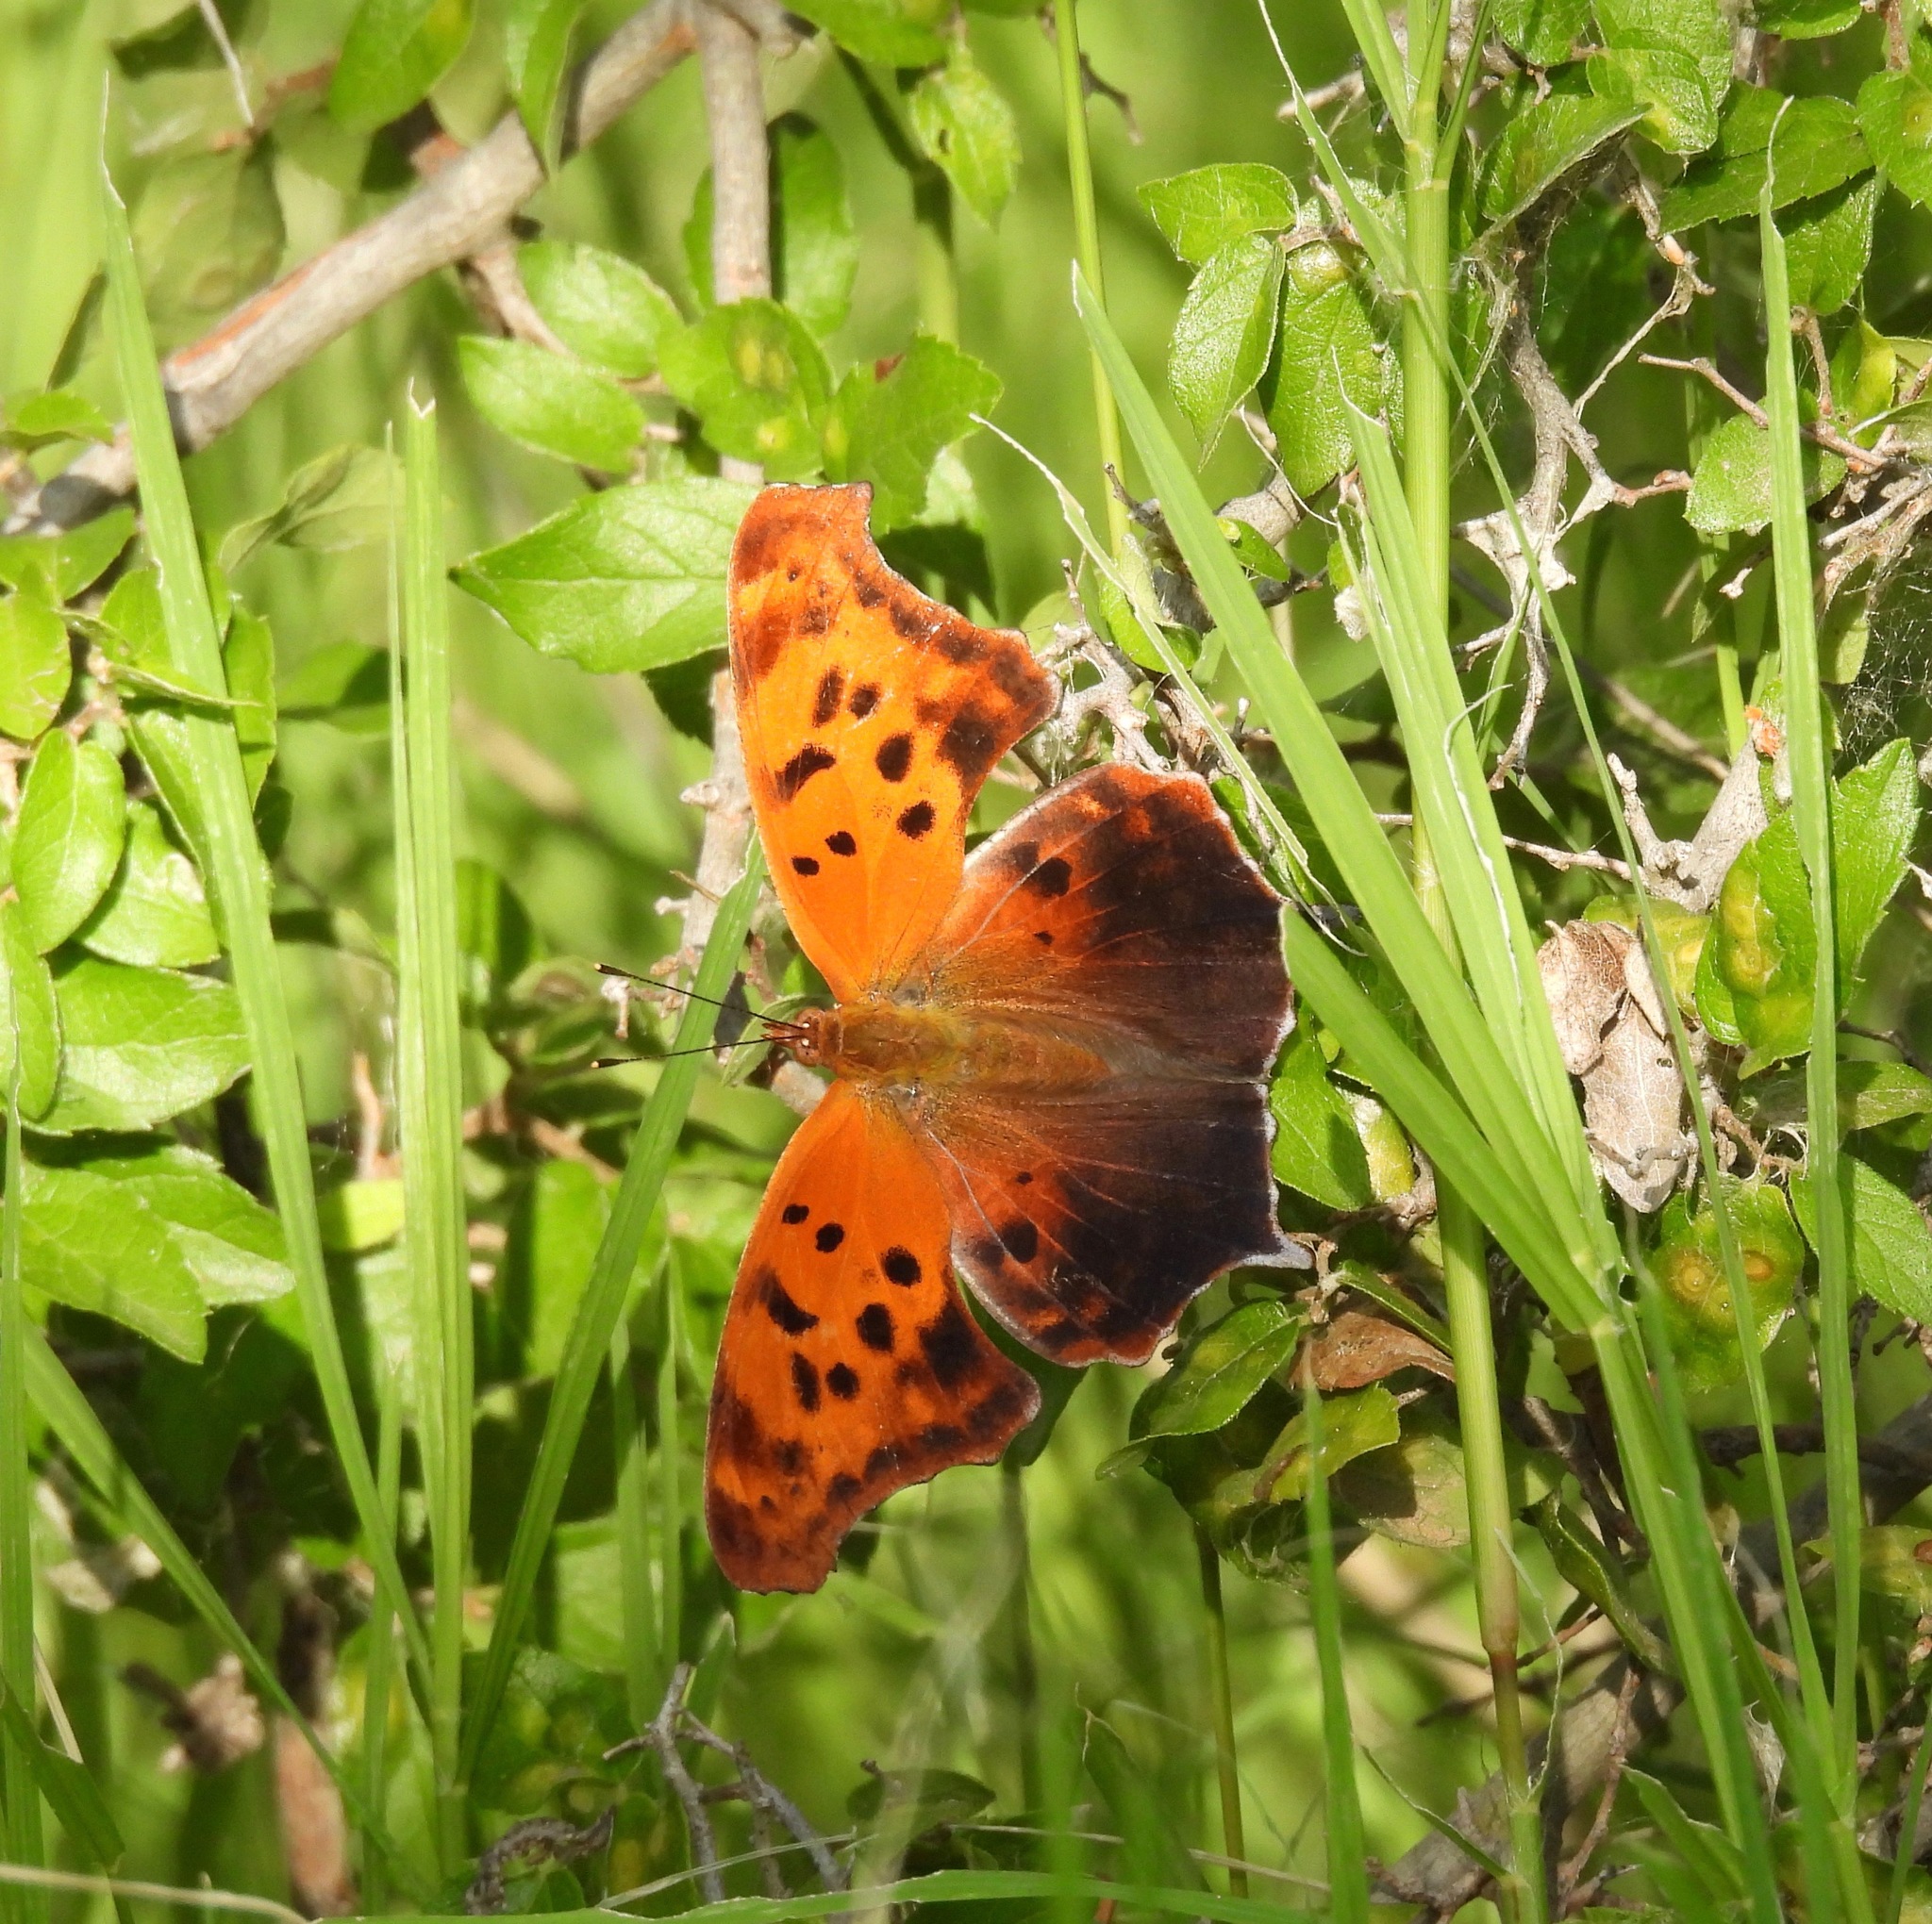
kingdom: Animalia
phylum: Arthropoda
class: Insecta
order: Lepidoptera
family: Nymphalidae
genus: Polygonia
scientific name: Polygonia interrogationis
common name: Question mark
